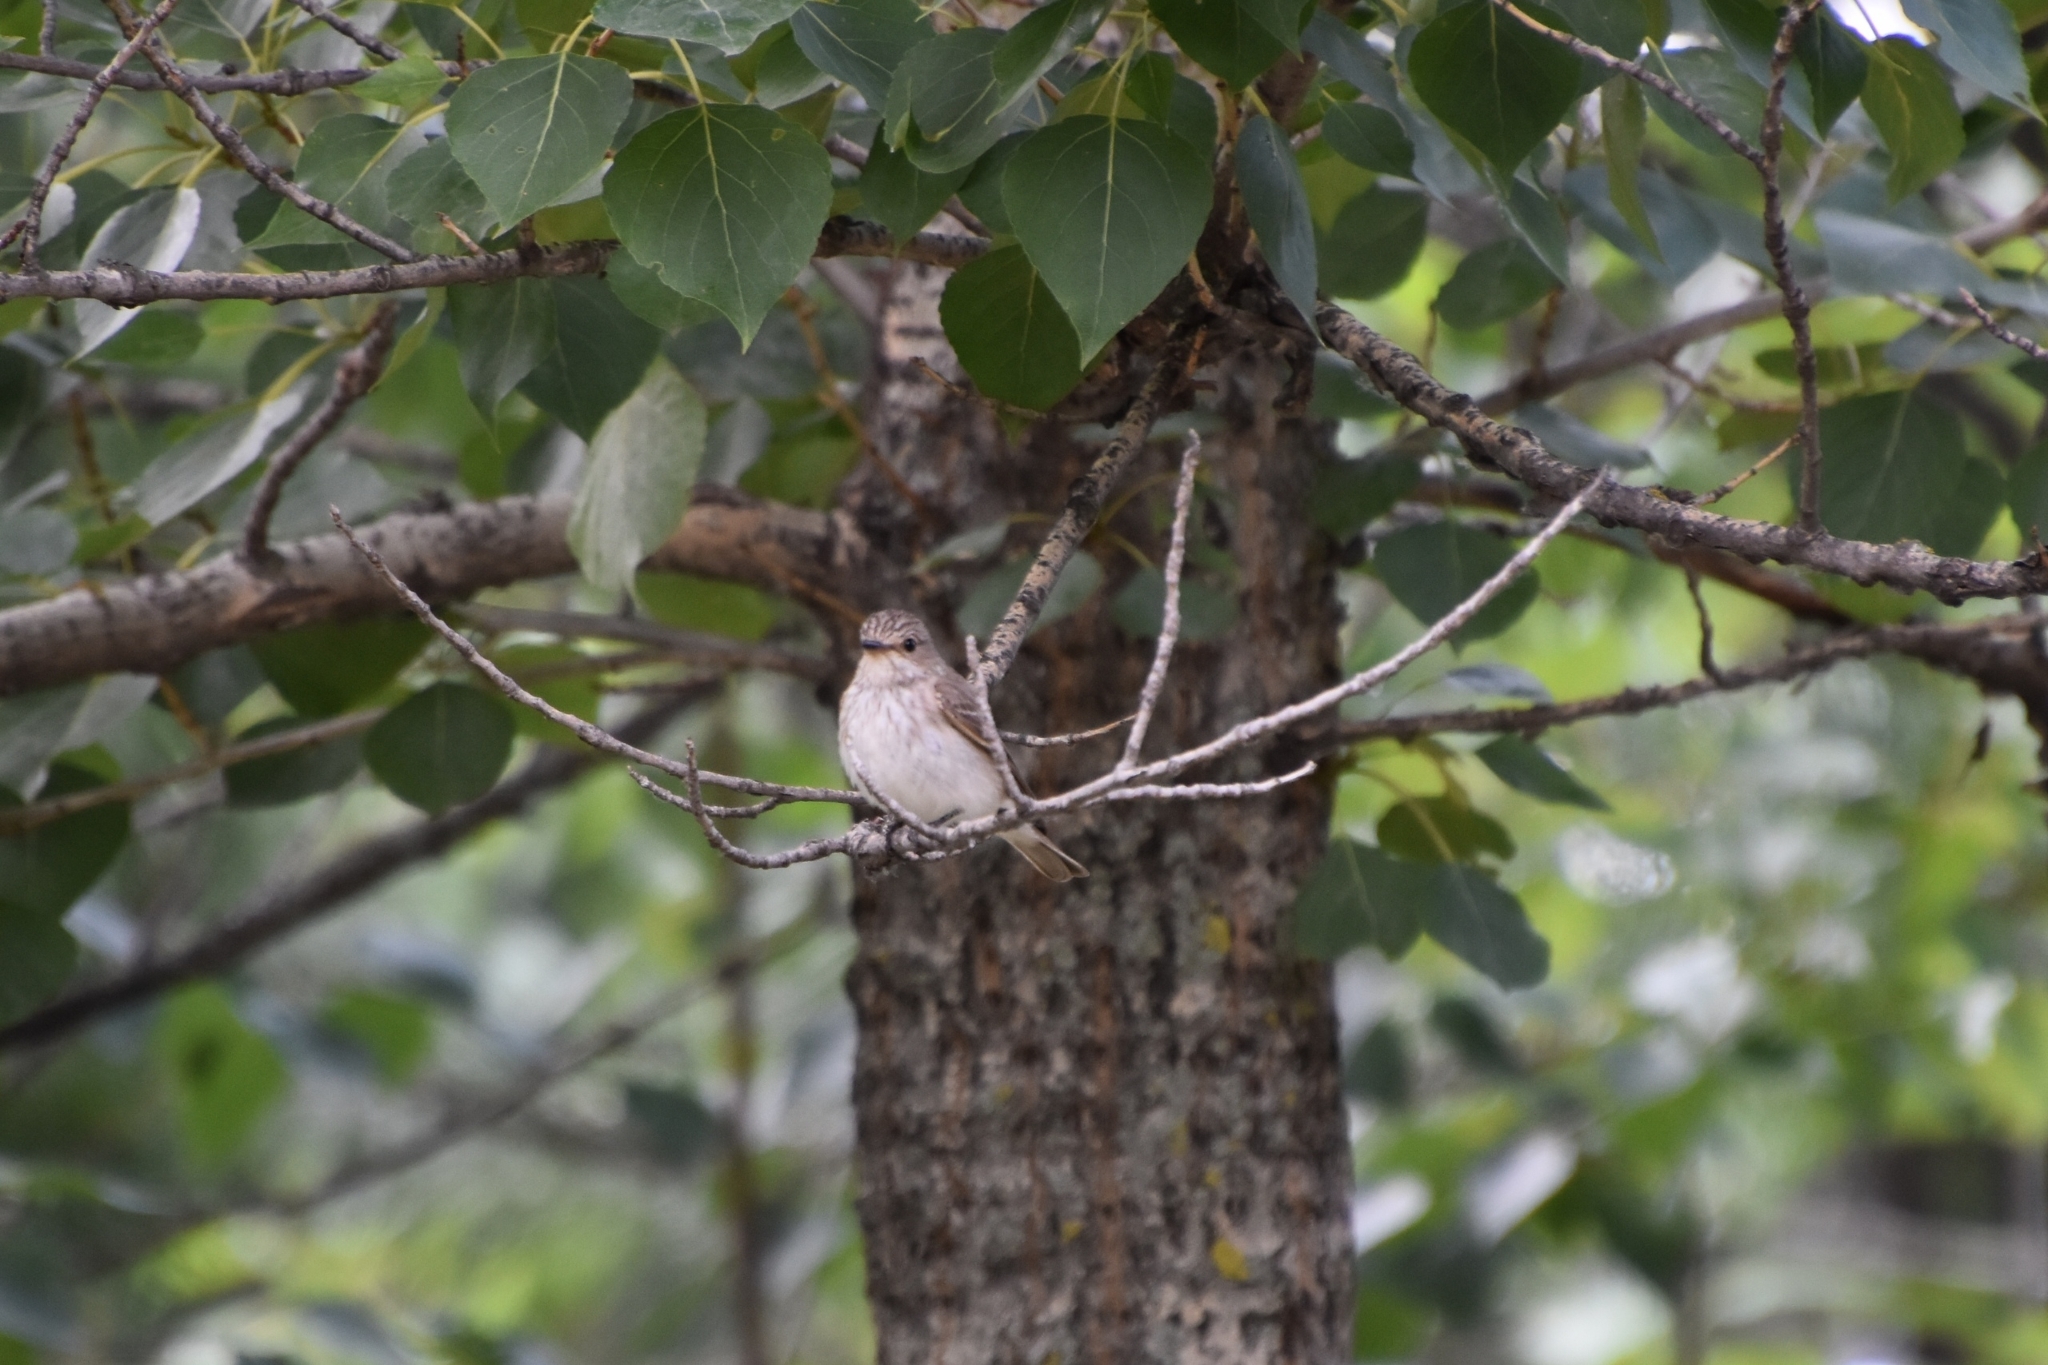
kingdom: Animalia
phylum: Chordata
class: Aves
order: Passeriformes
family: Muscicapidae
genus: Muscicapa
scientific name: Muscicapa striata
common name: Spotted flycatcher
